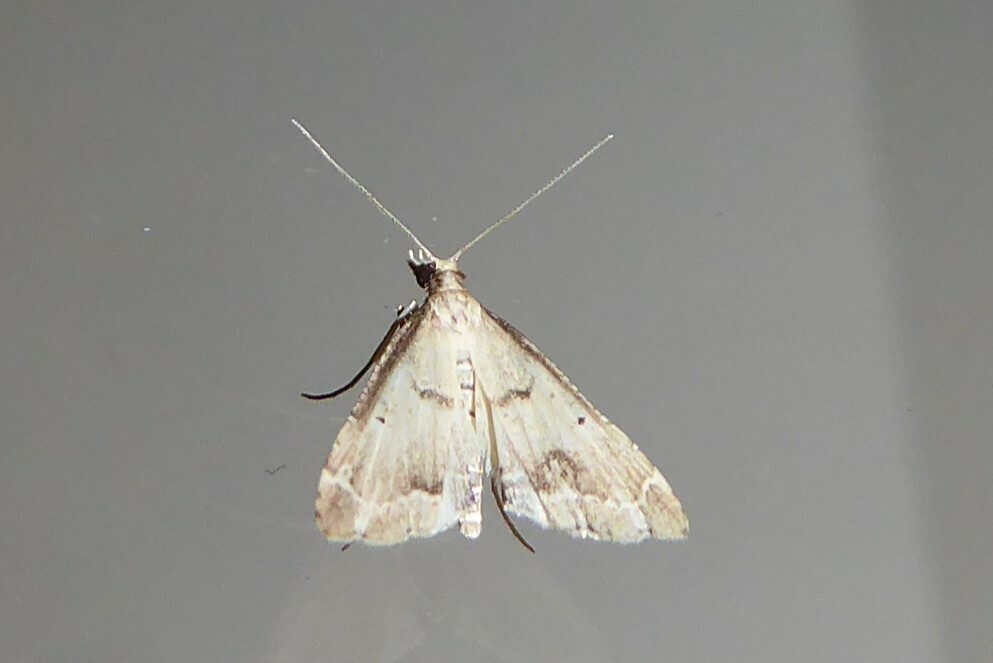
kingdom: Animalia
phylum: Arthropoda
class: Insecta
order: Lepidoptera
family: Crambidae
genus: Diplopseustis
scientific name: Diplopseustis perieresalis
